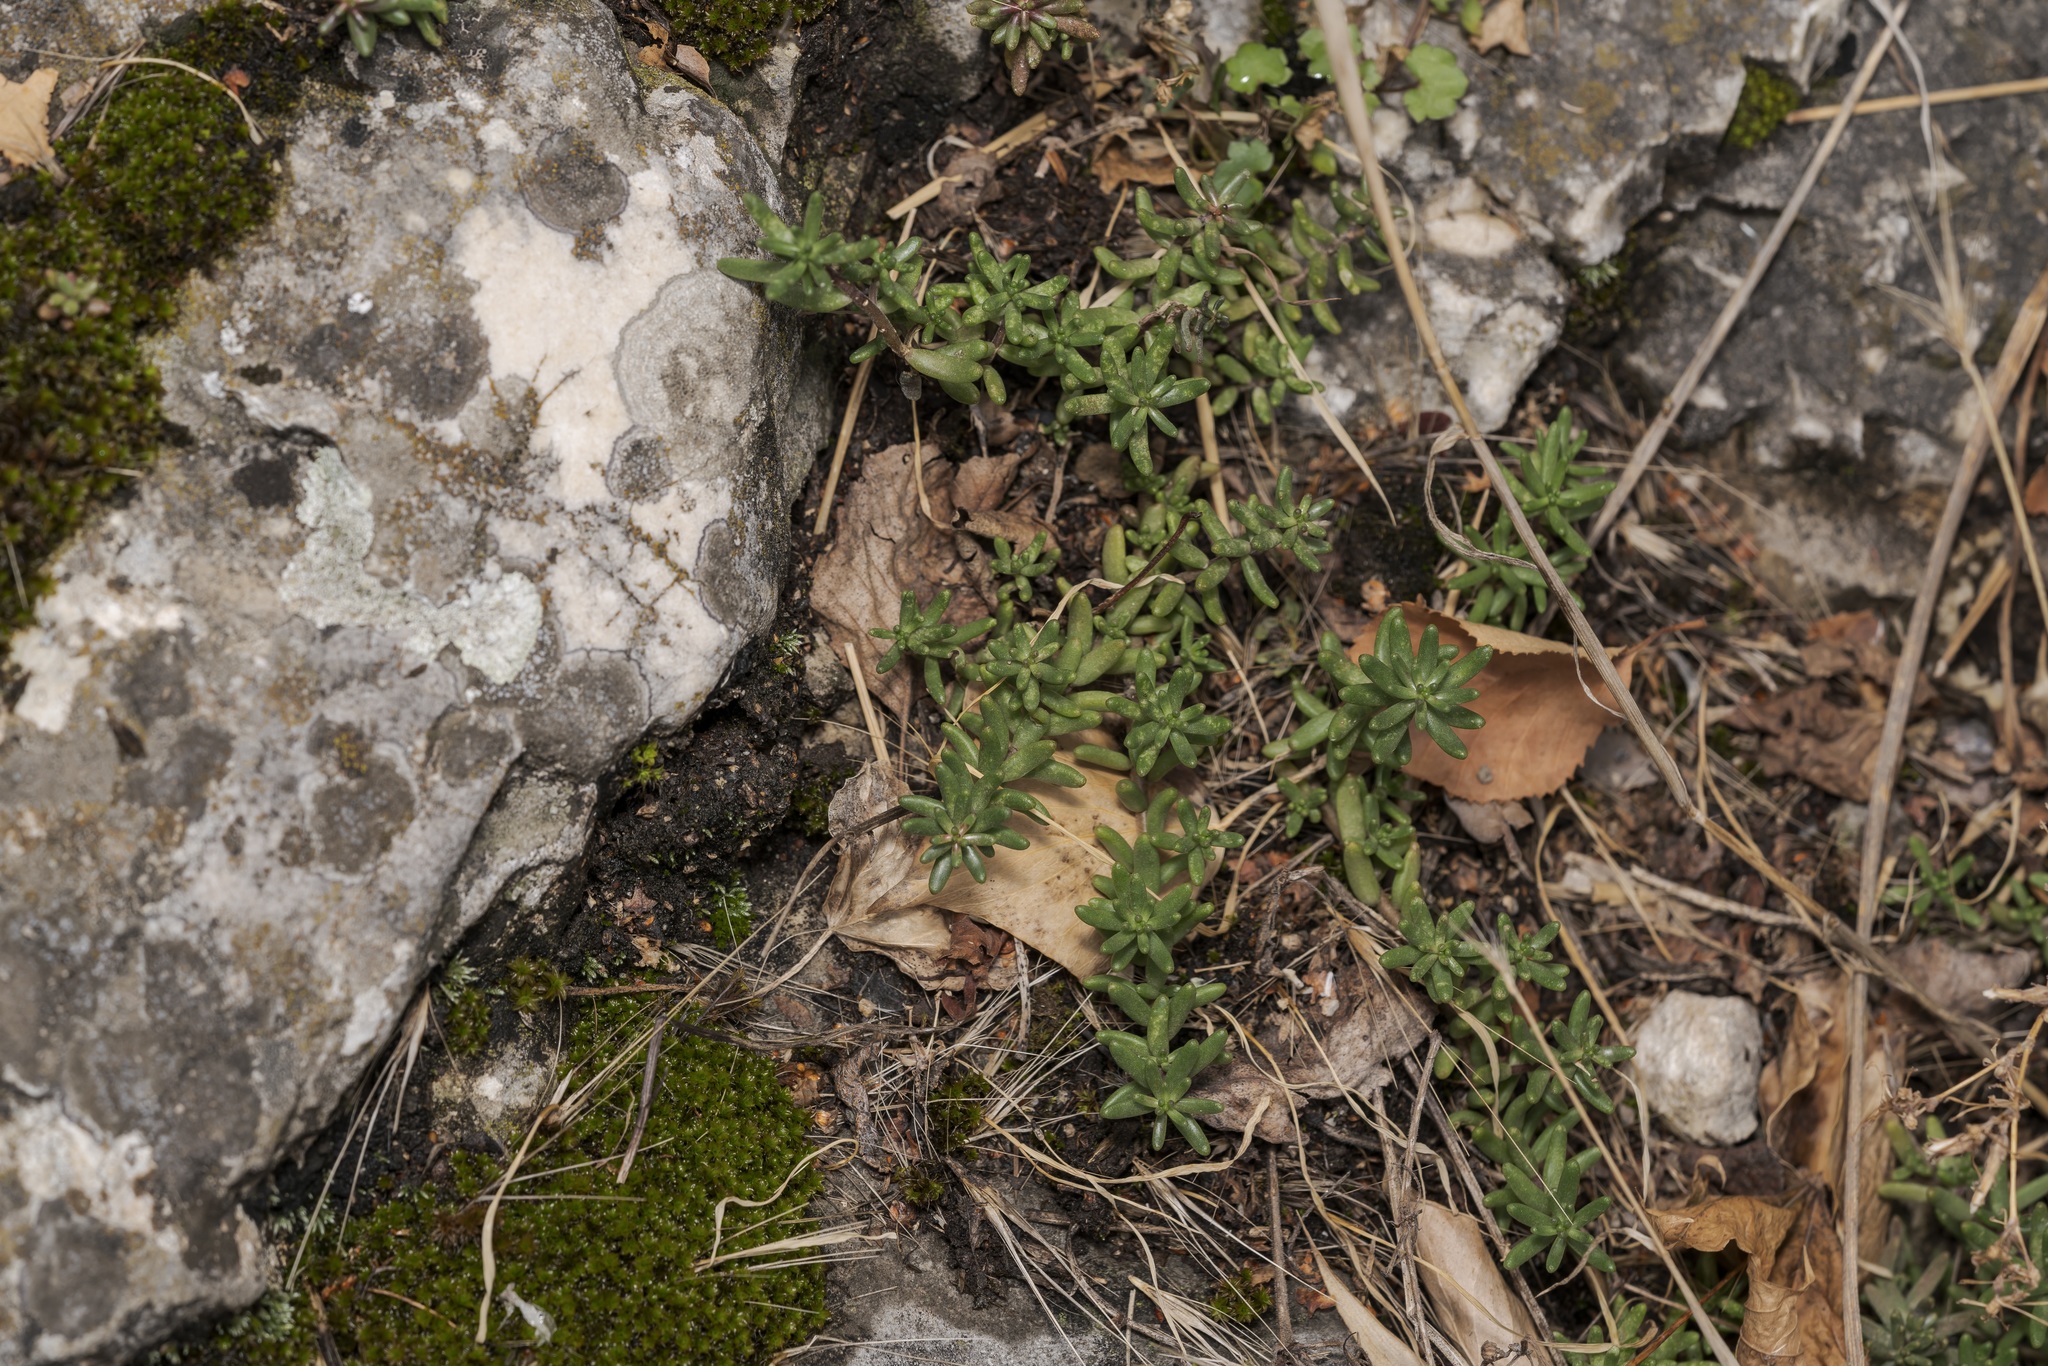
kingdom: Plantae
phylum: Tracheophyta
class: Magnoliopsida
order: Saxifragales
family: Crassulaceae
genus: Sedum
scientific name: Sedum album
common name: White stonecrop
